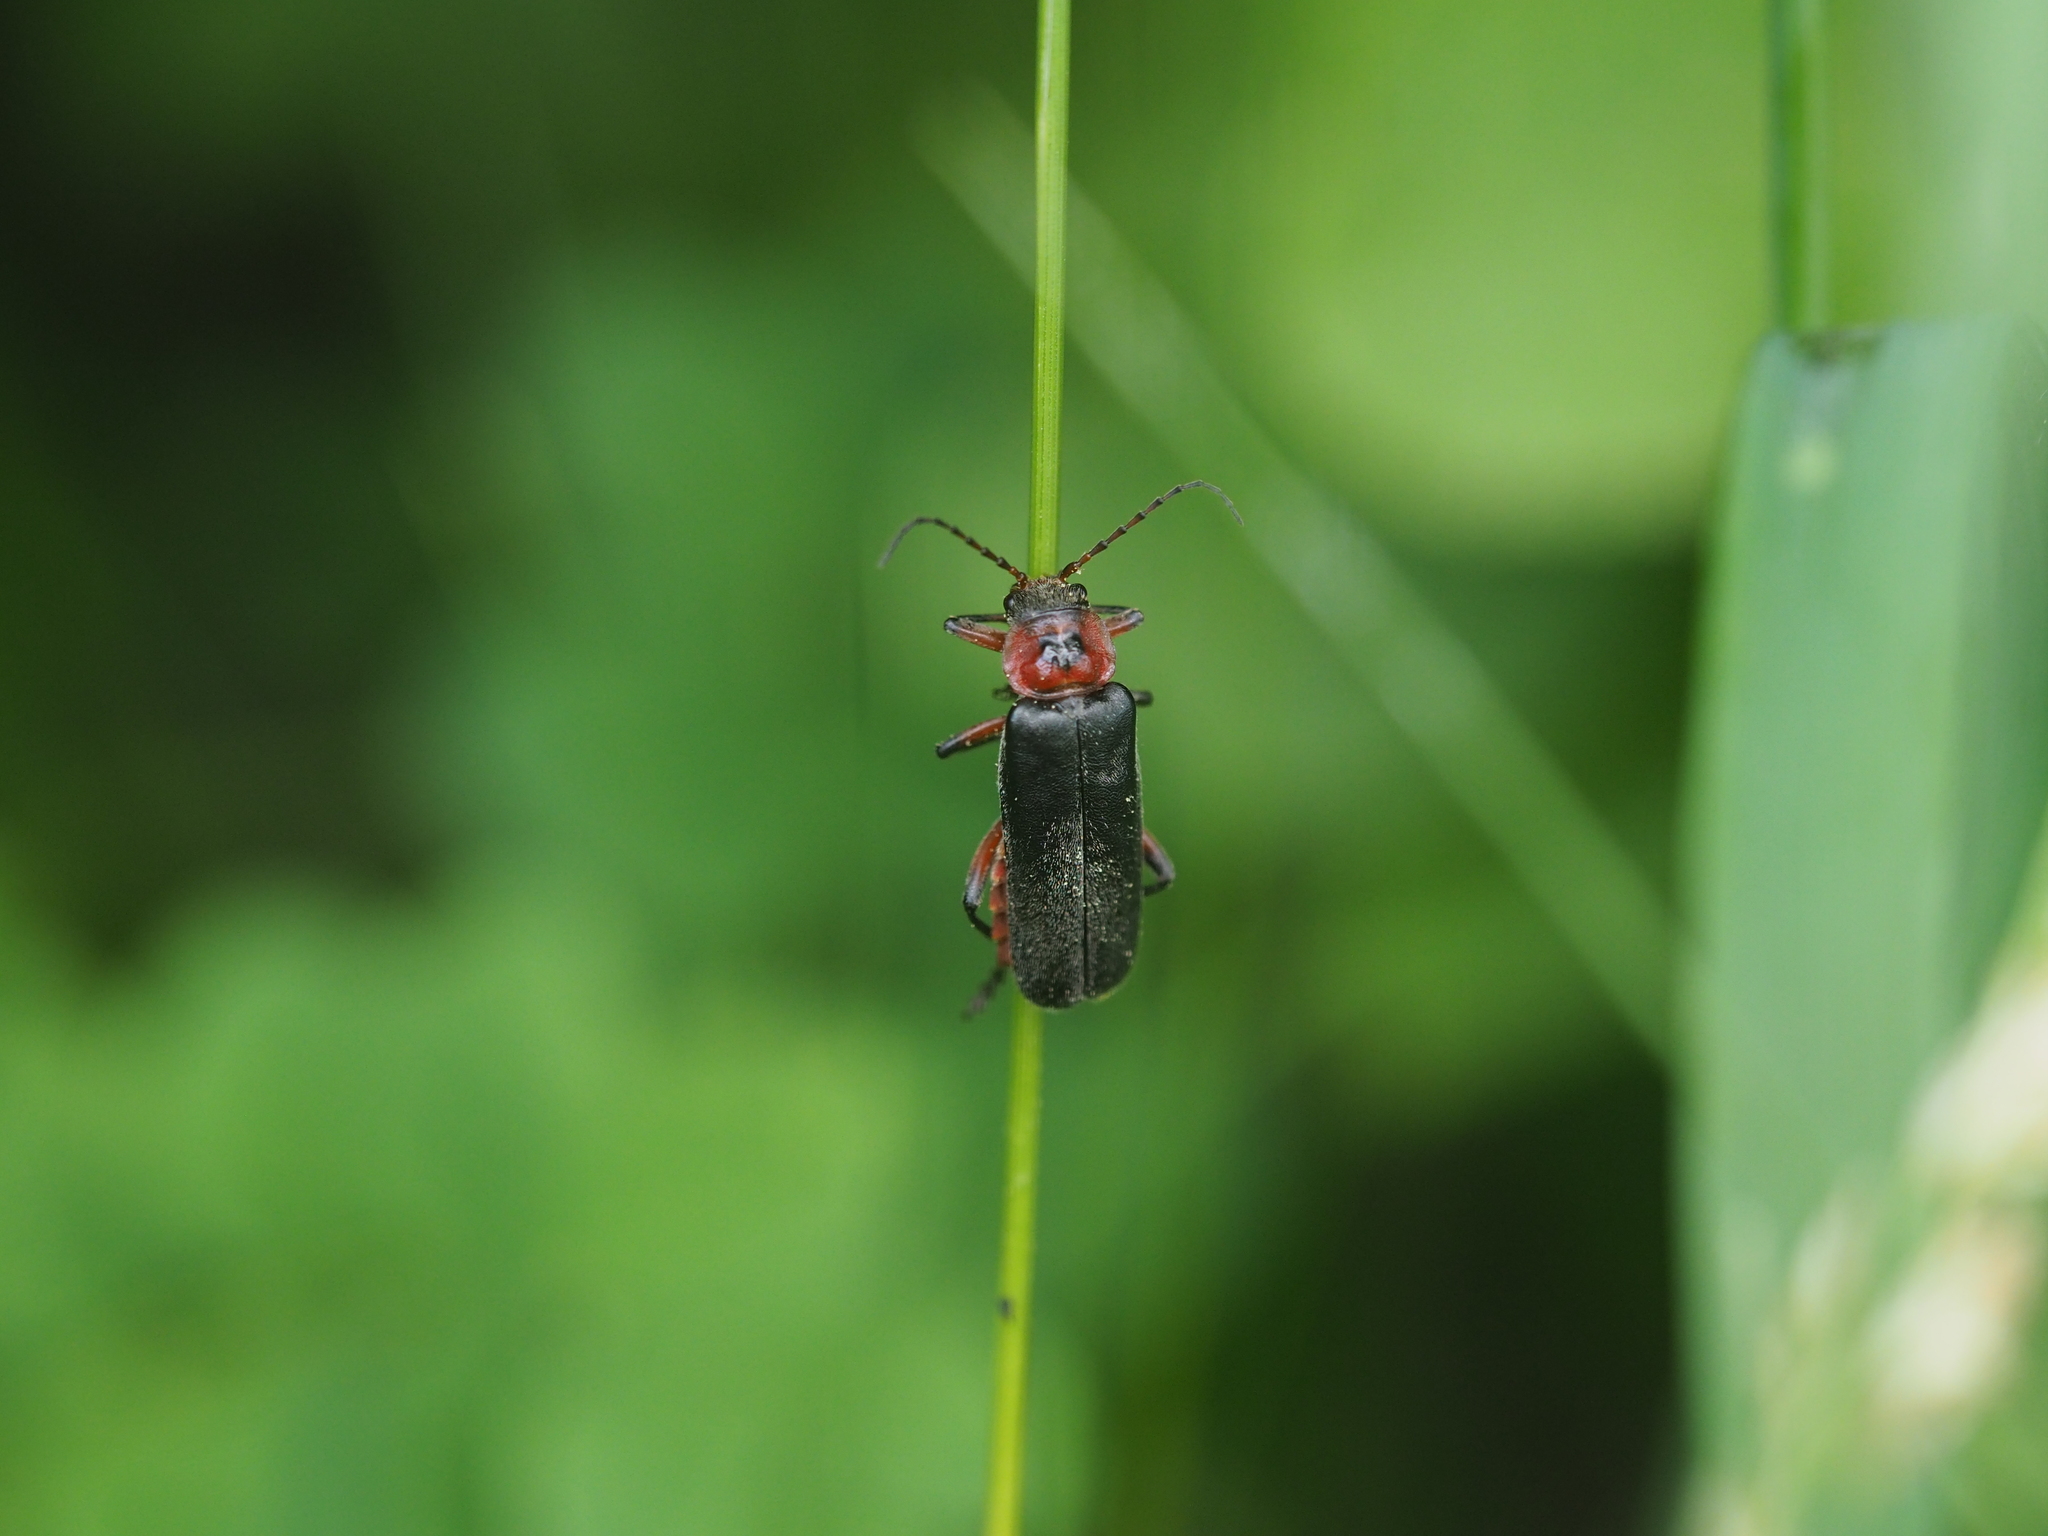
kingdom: Animalia
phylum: Arthropoda
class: Insecta
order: Coleoptera
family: Cantharidae
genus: Cantharis
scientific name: Cantharis rustica
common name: Soldier beetle
